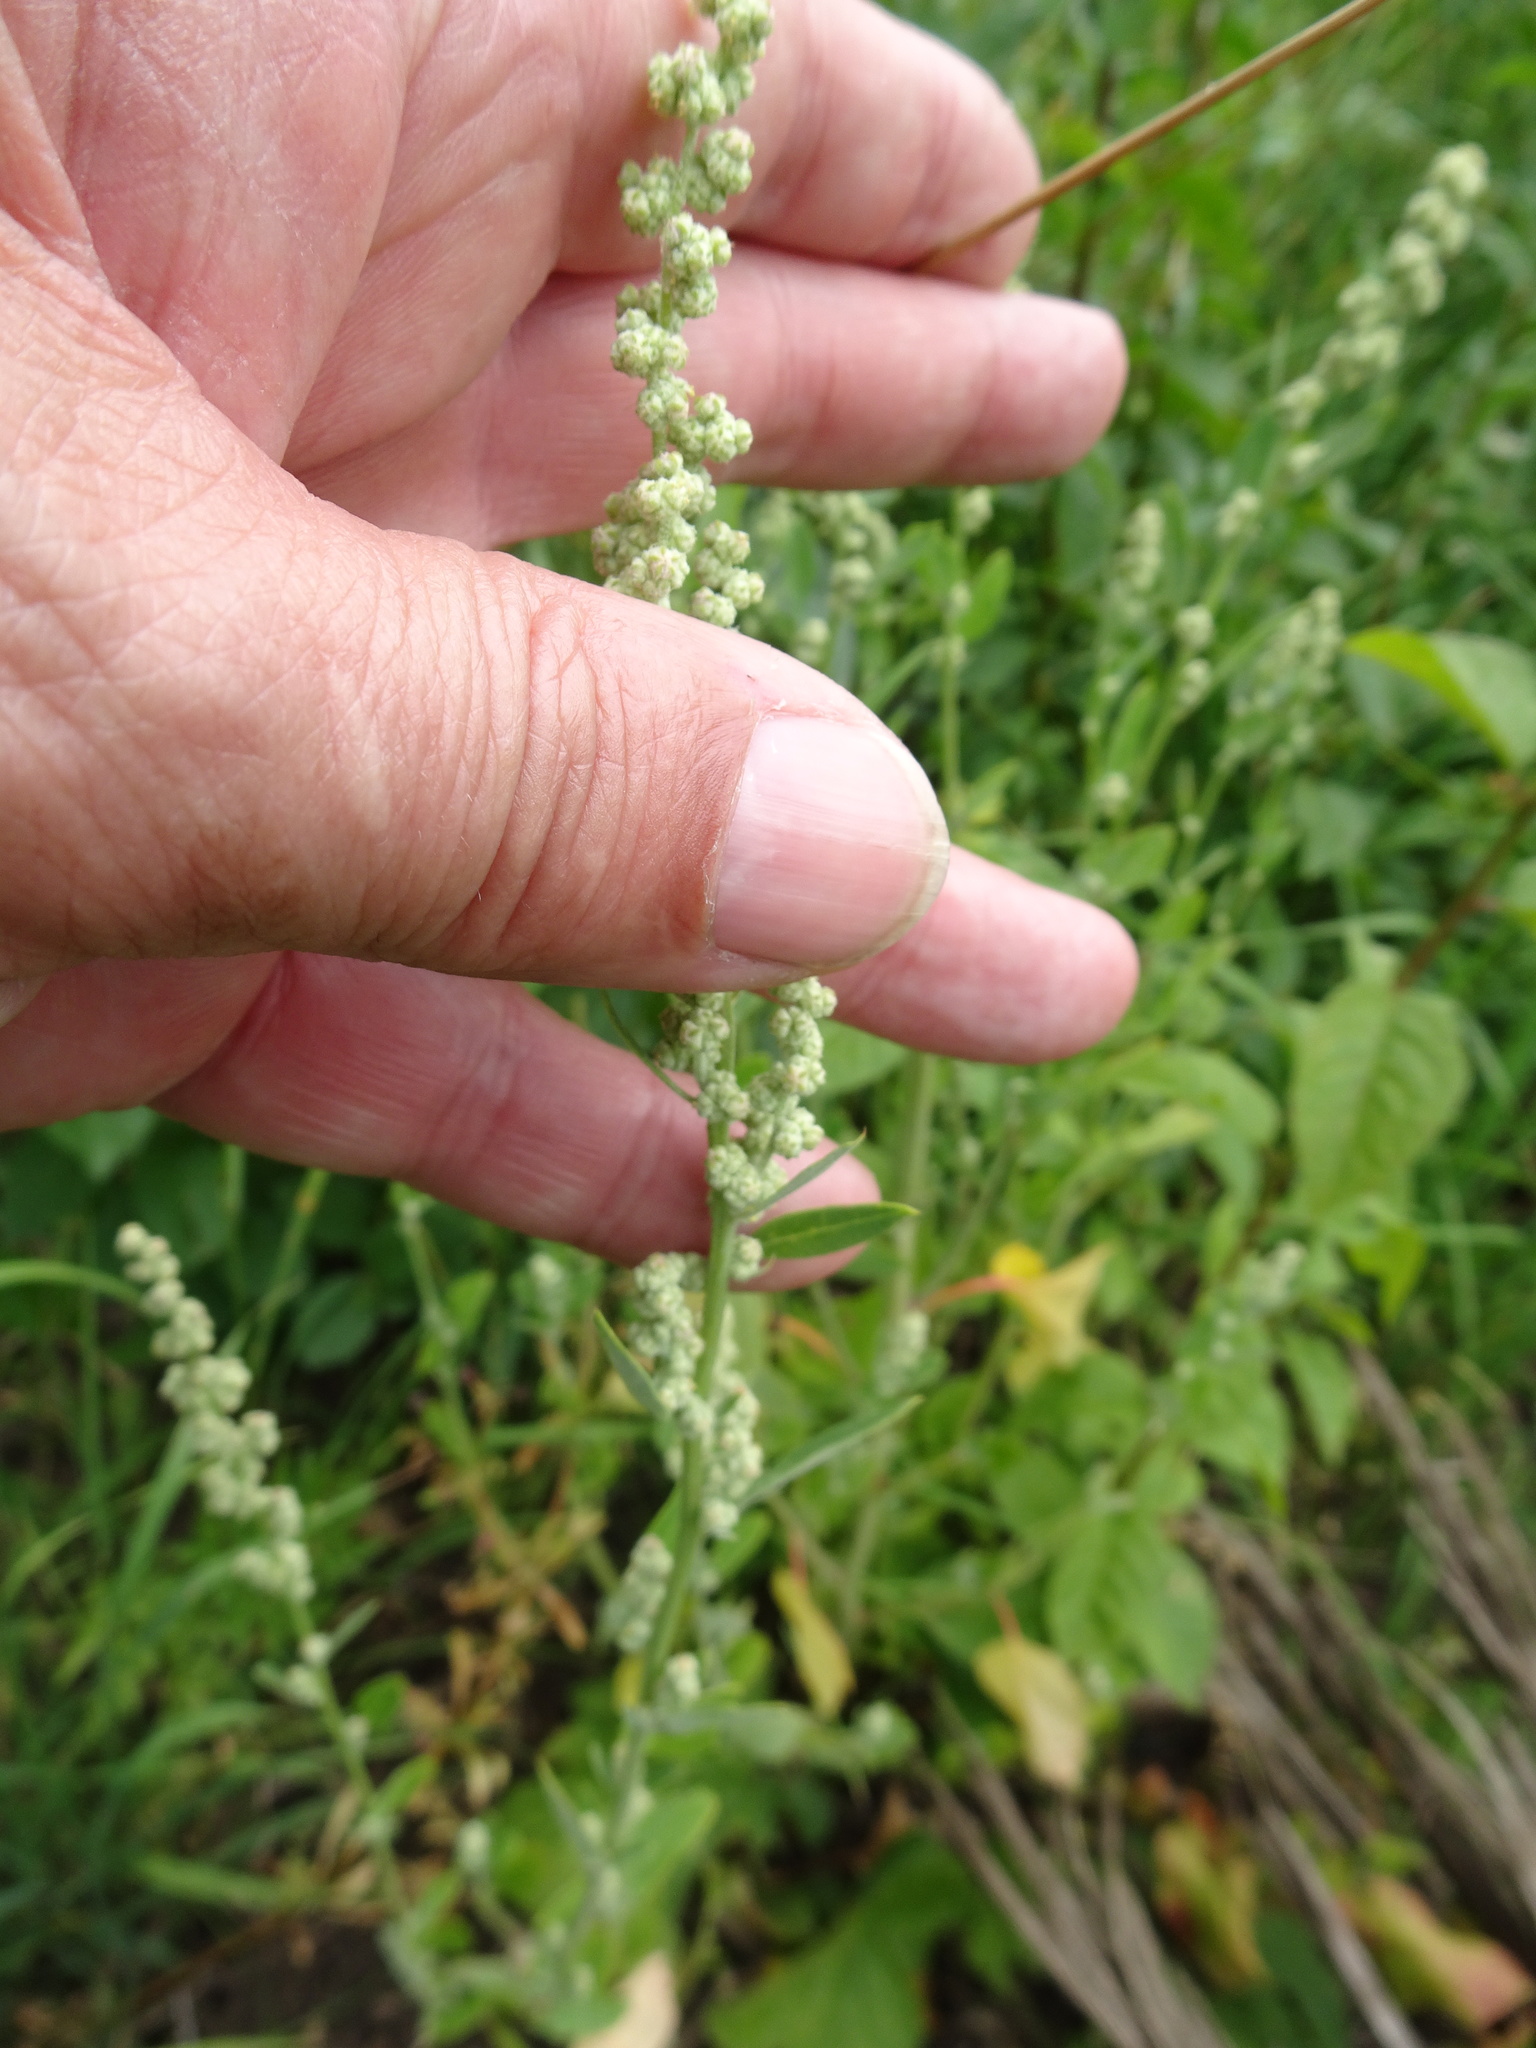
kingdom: Plantae
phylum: Tracheophyta
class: Magnoliopsida
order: Caryophyllales
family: Amaranthaceae
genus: Chenopodium
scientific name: Chenopodium album
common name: Fat-hen
